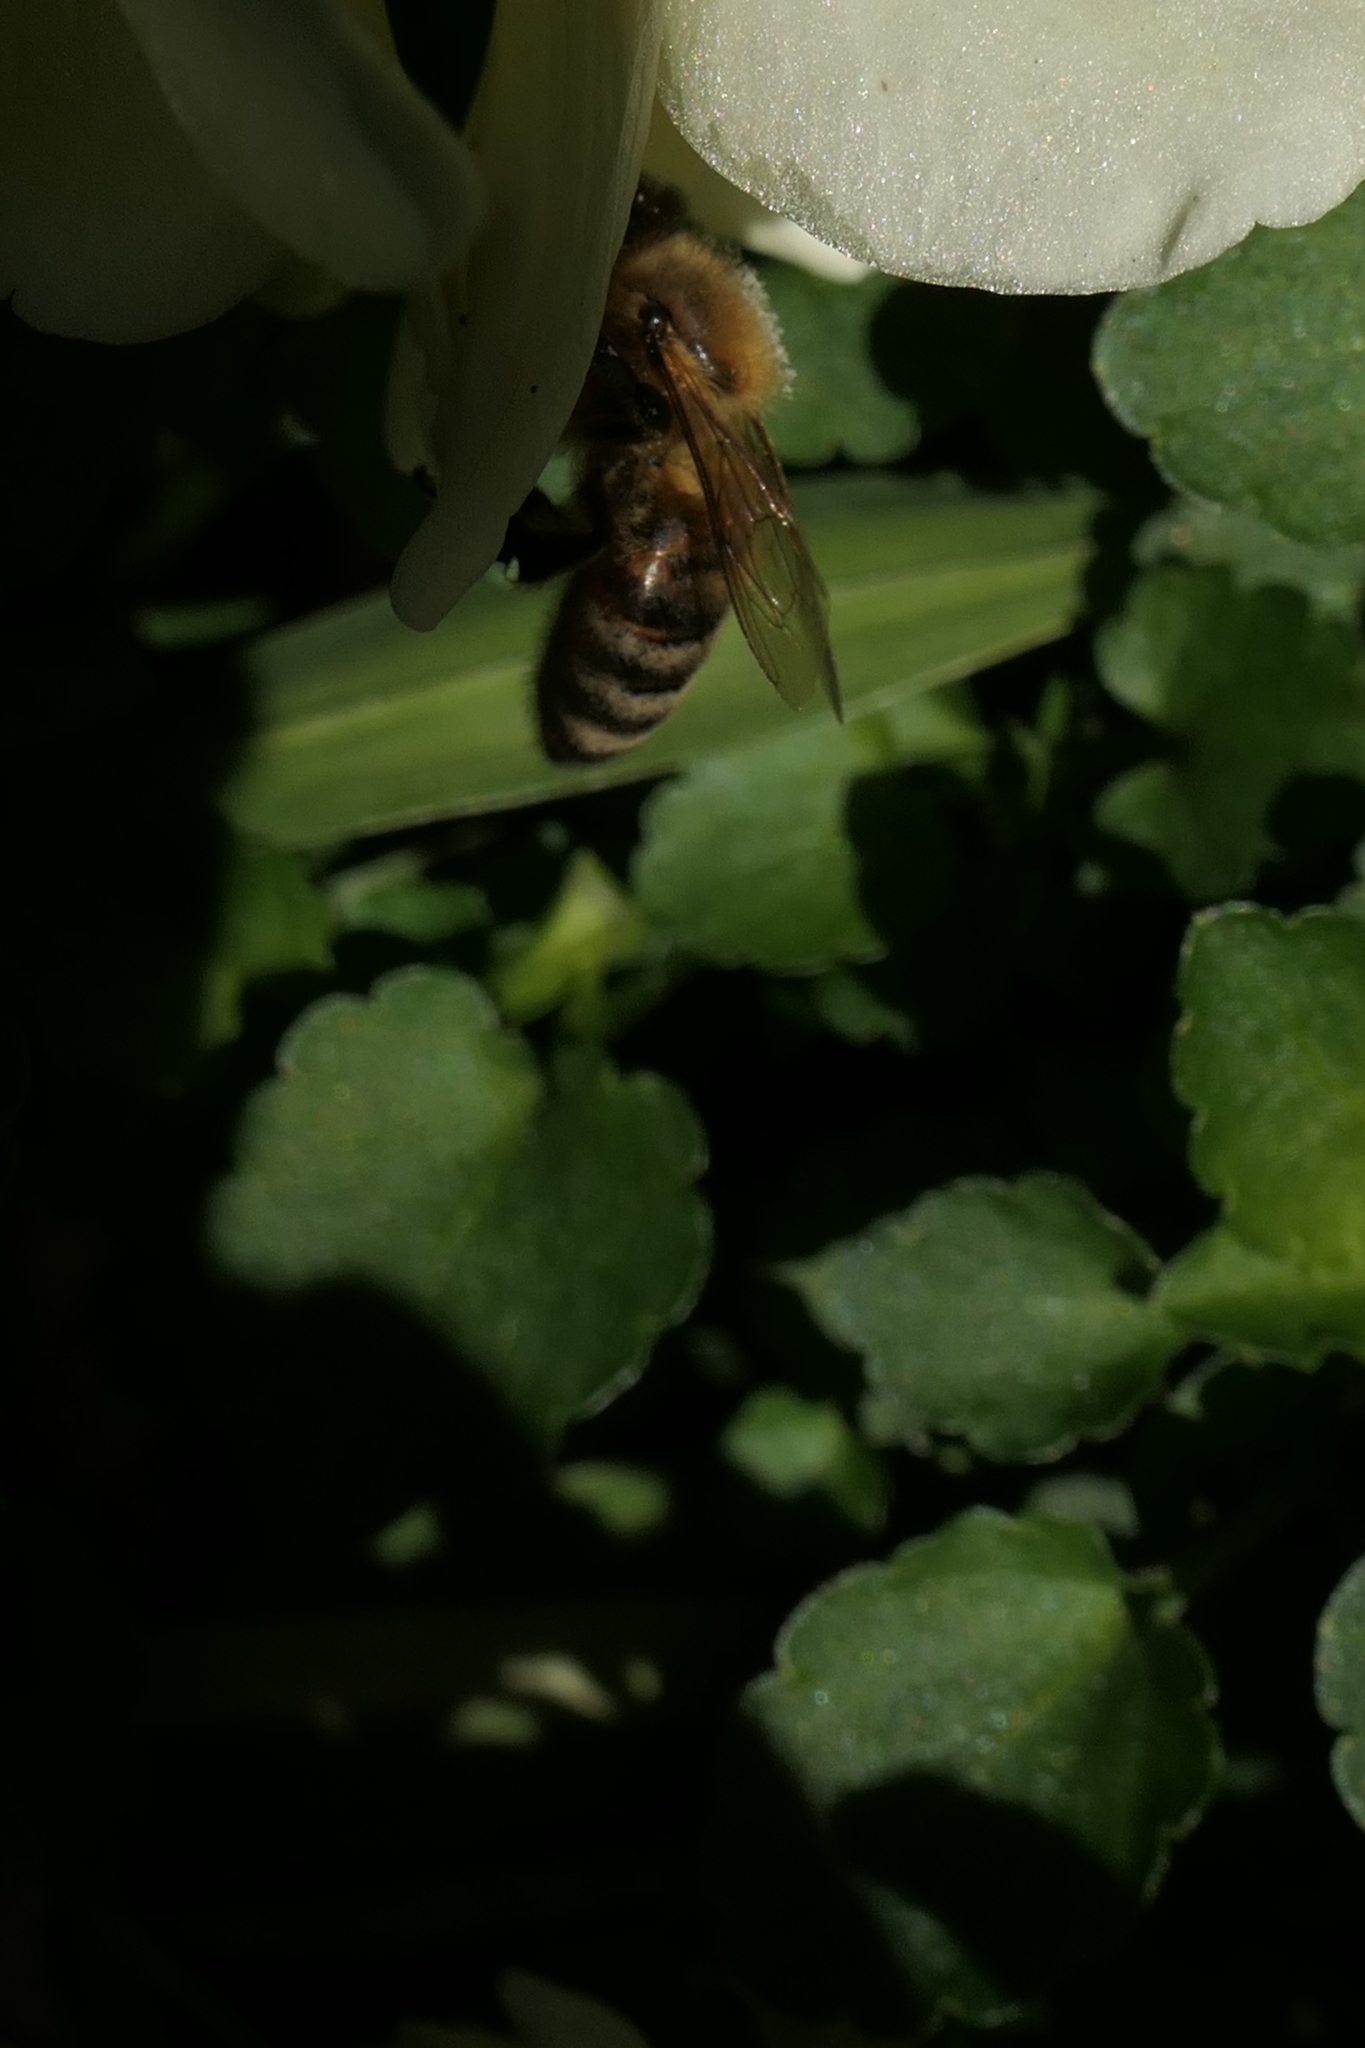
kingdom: Animalia
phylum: Arthropoda
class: Insecta
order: Hymenoptera
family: Apidae
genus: Apis
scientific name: Apis mellifera
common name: Honey bee
